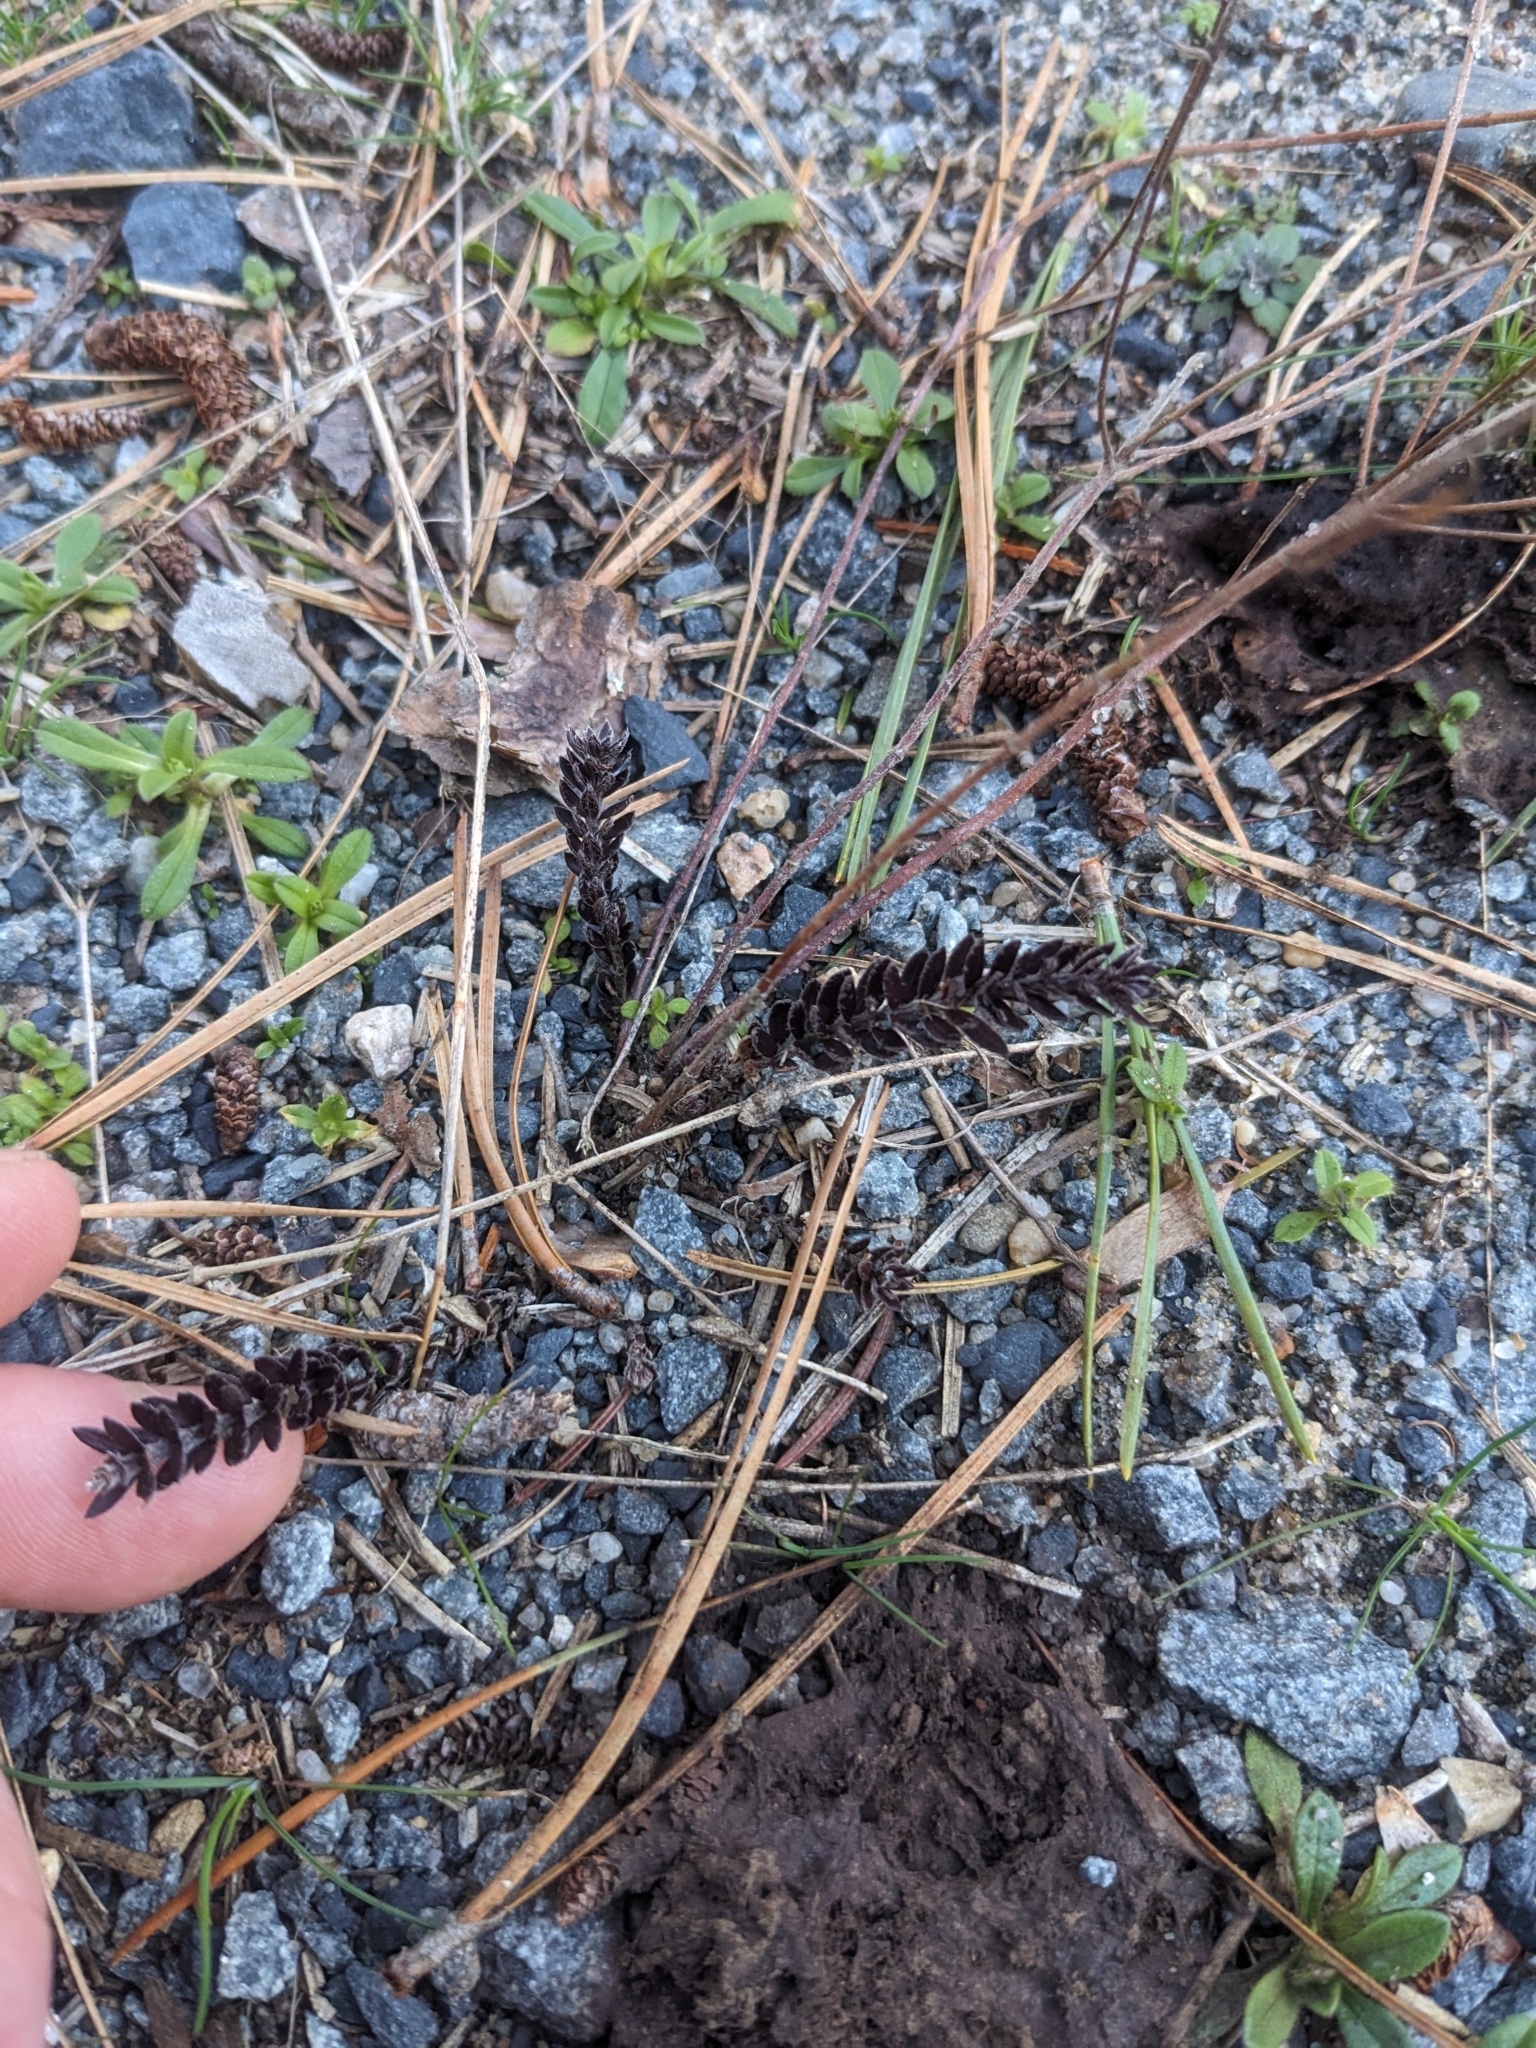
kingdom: Plantae
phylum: Tracheophyta
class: Magnoliopsida
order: Malvales
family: Cistaceae
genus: Lechea
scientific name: Lechea maritima
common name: Beach pinweed
